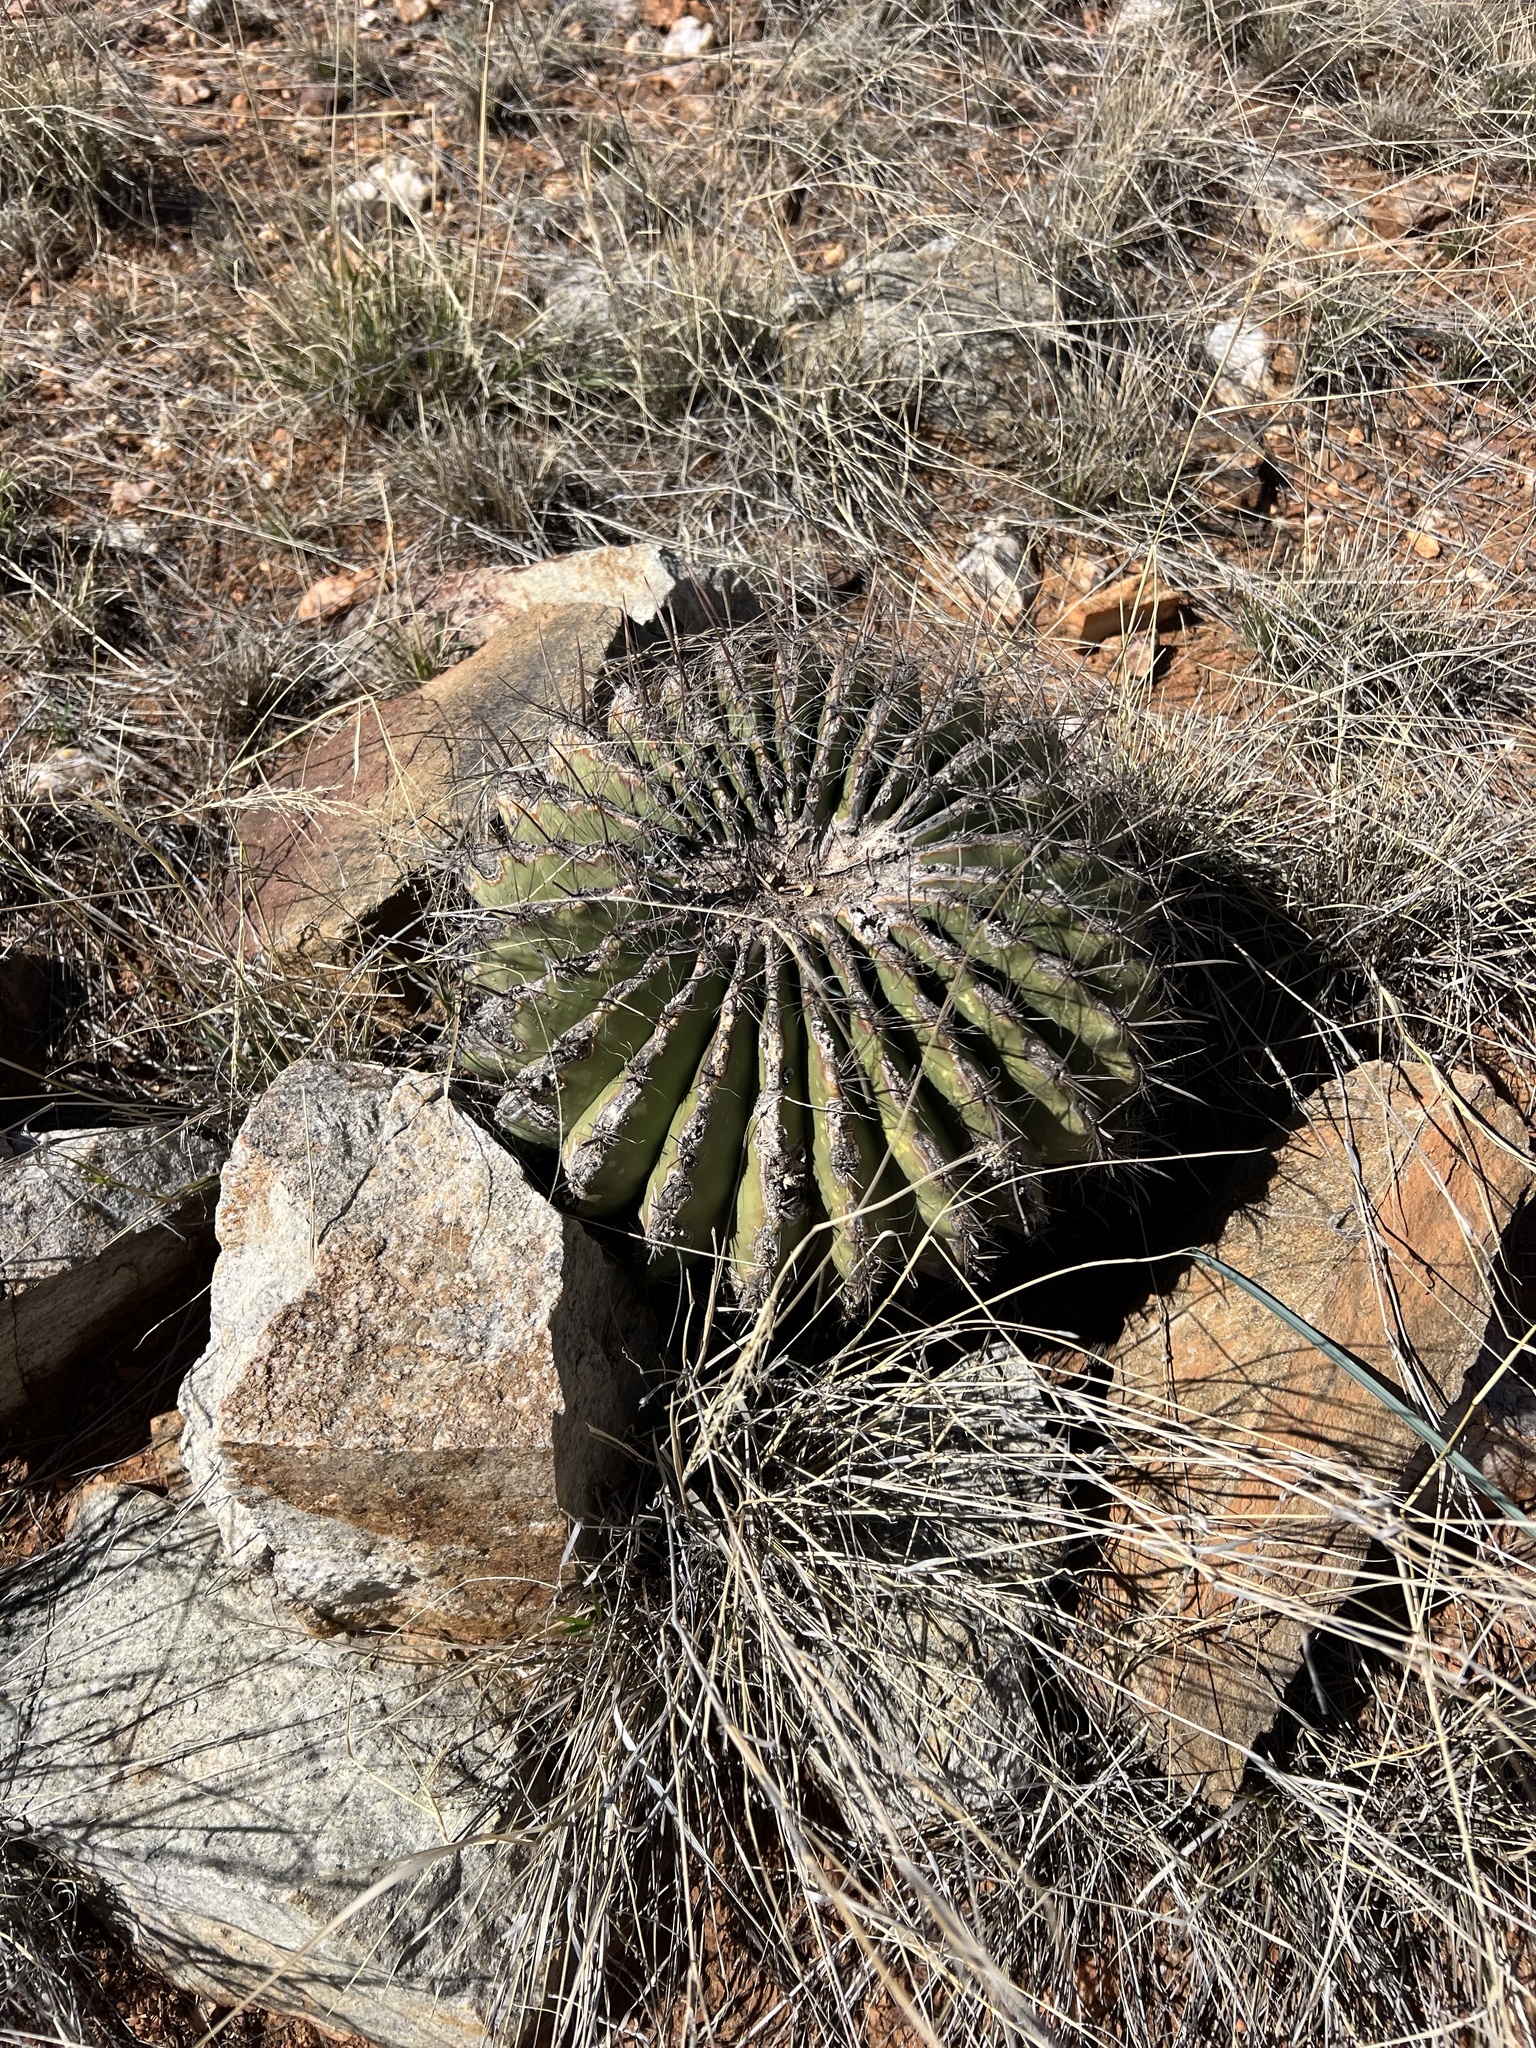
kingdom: Plantae
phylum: Tracheophyta
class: Magnoliopsida
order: Caryophyllales
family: Cactaceae
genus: Ferocactus
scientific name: Ferocactus wislizeni
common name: Candy barrel cactus
